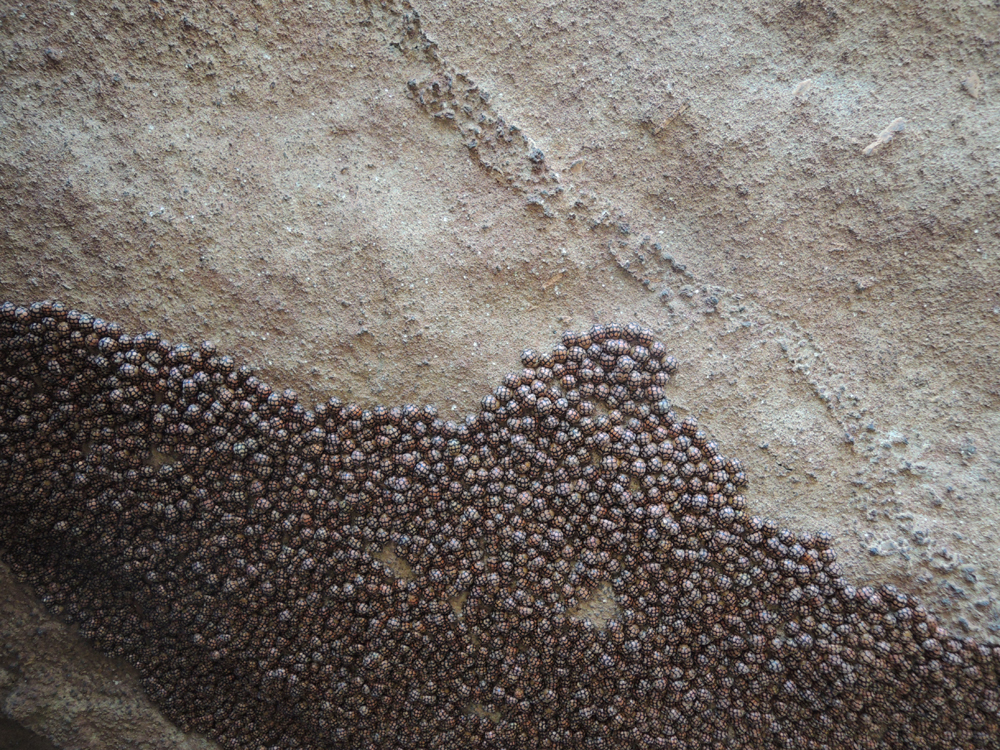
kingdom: Animalia
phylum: Arthropoda
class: Insecta
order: Coleoptera
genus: Solanophila
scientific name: Solanophila
